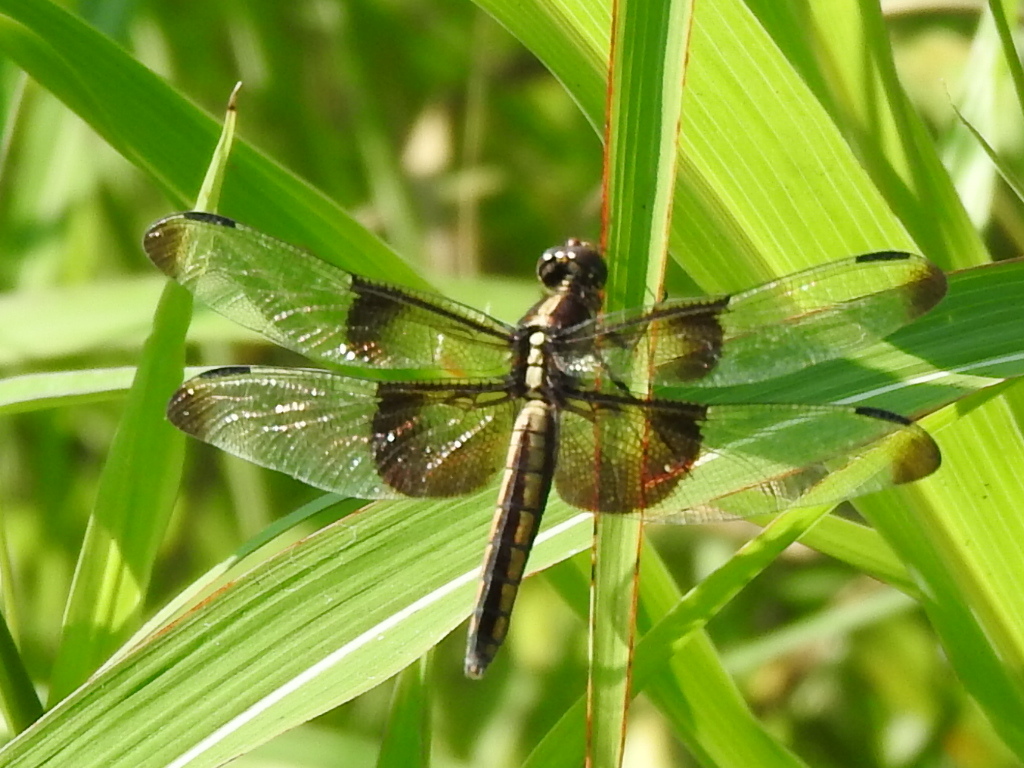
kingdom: Animalia
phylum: Arthropoda
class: Insecta
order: Odonata
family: Libellulidae
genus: Libellula
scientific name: Libellula luctuosa
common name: Widow skimmer
